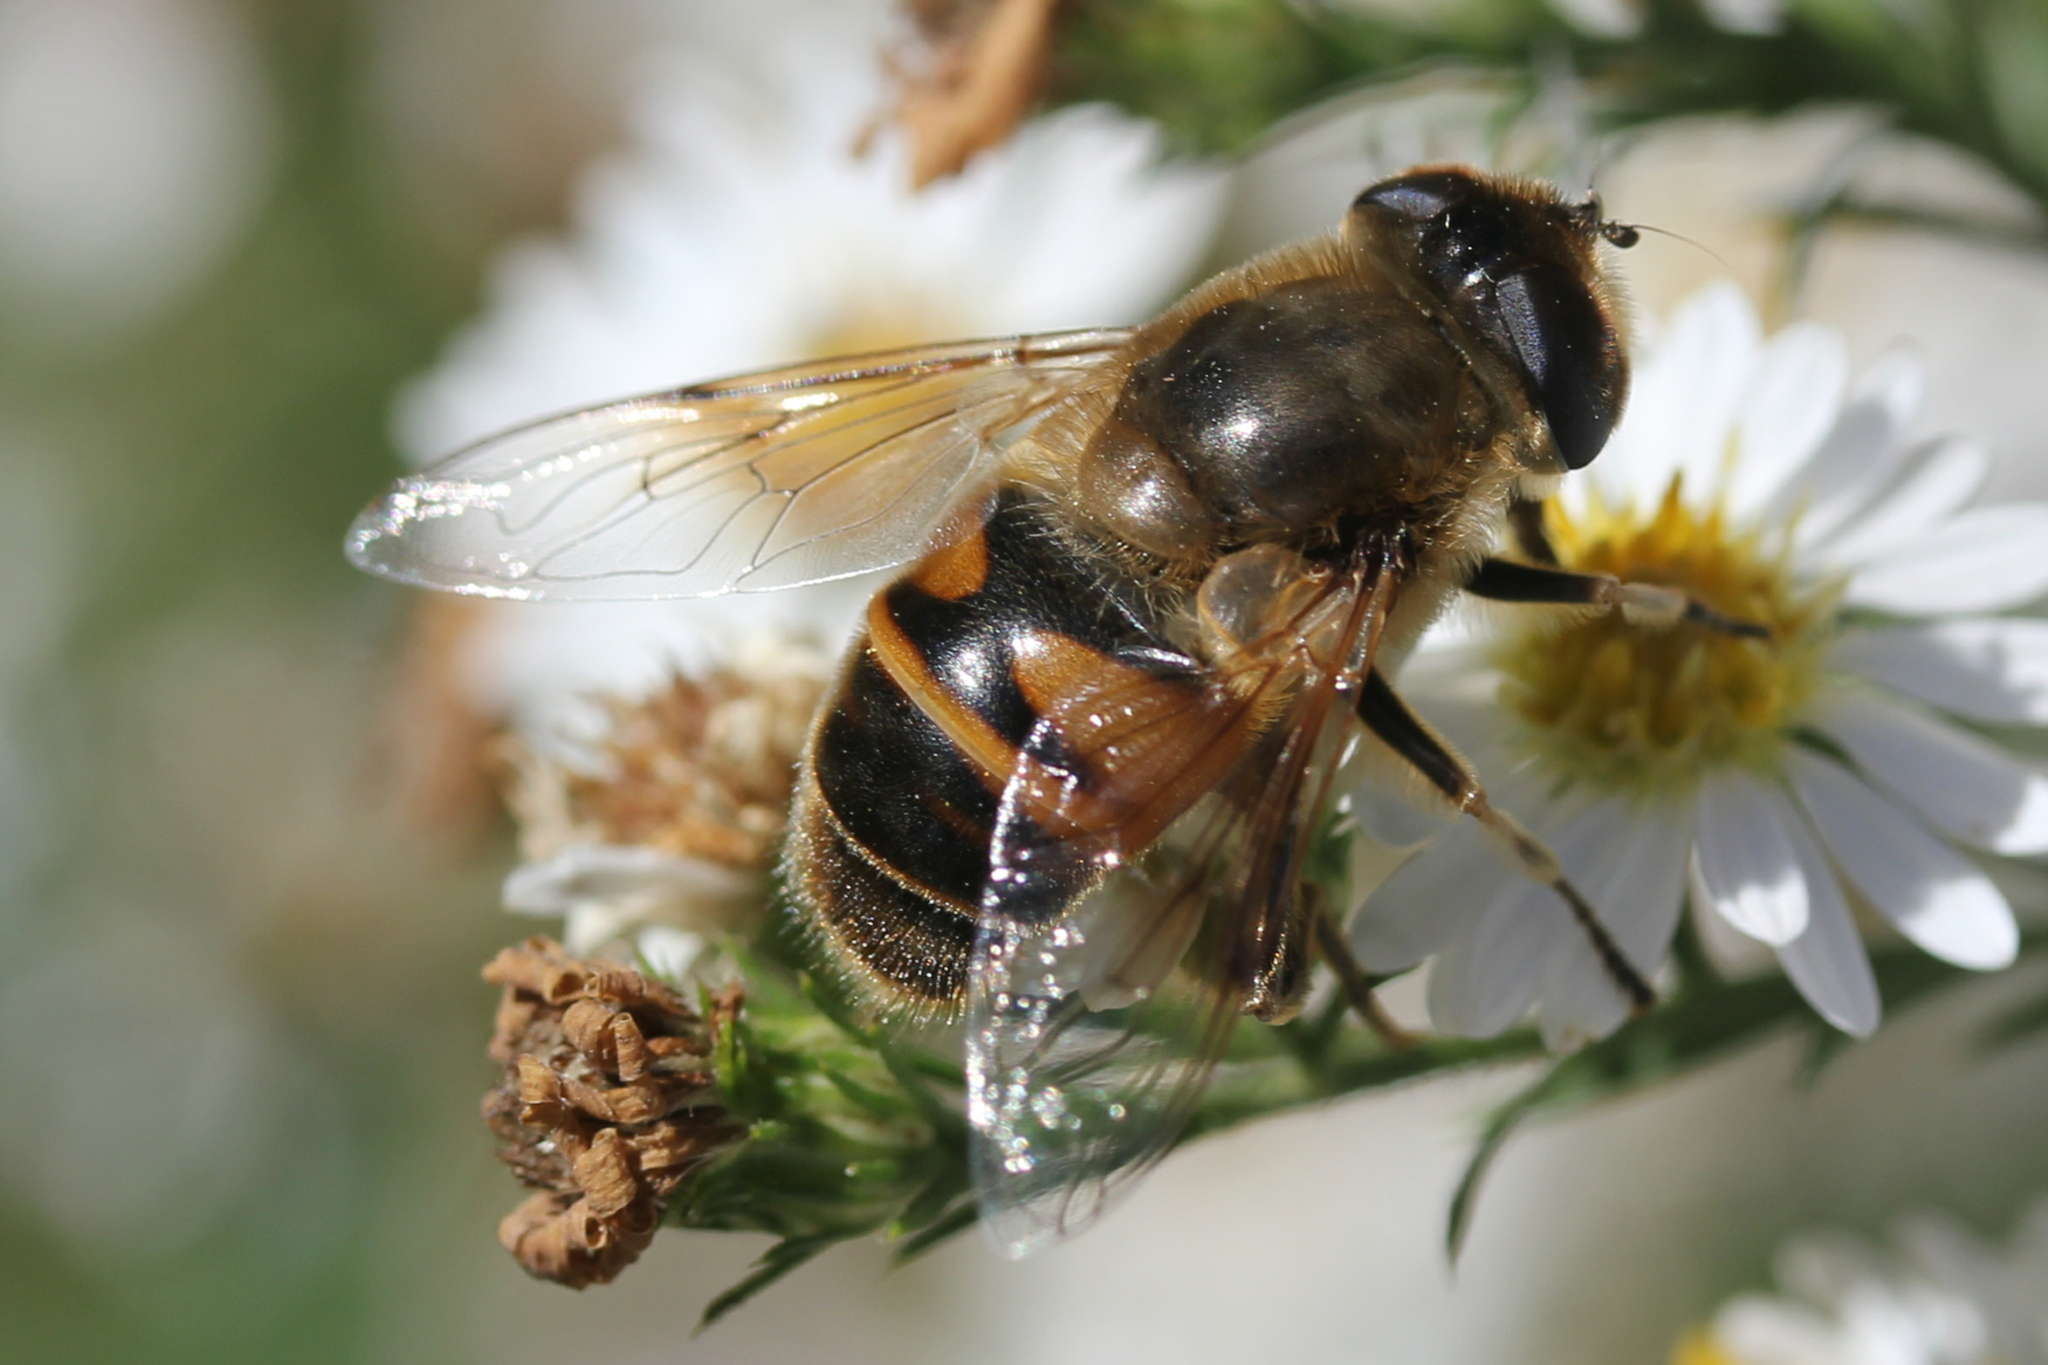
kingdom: Animalia
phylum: Arthropoda
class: Insecta
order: Diptera
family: Syrphidae
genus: Eristalis
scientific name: Eristalis tenax
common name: Drone fly
